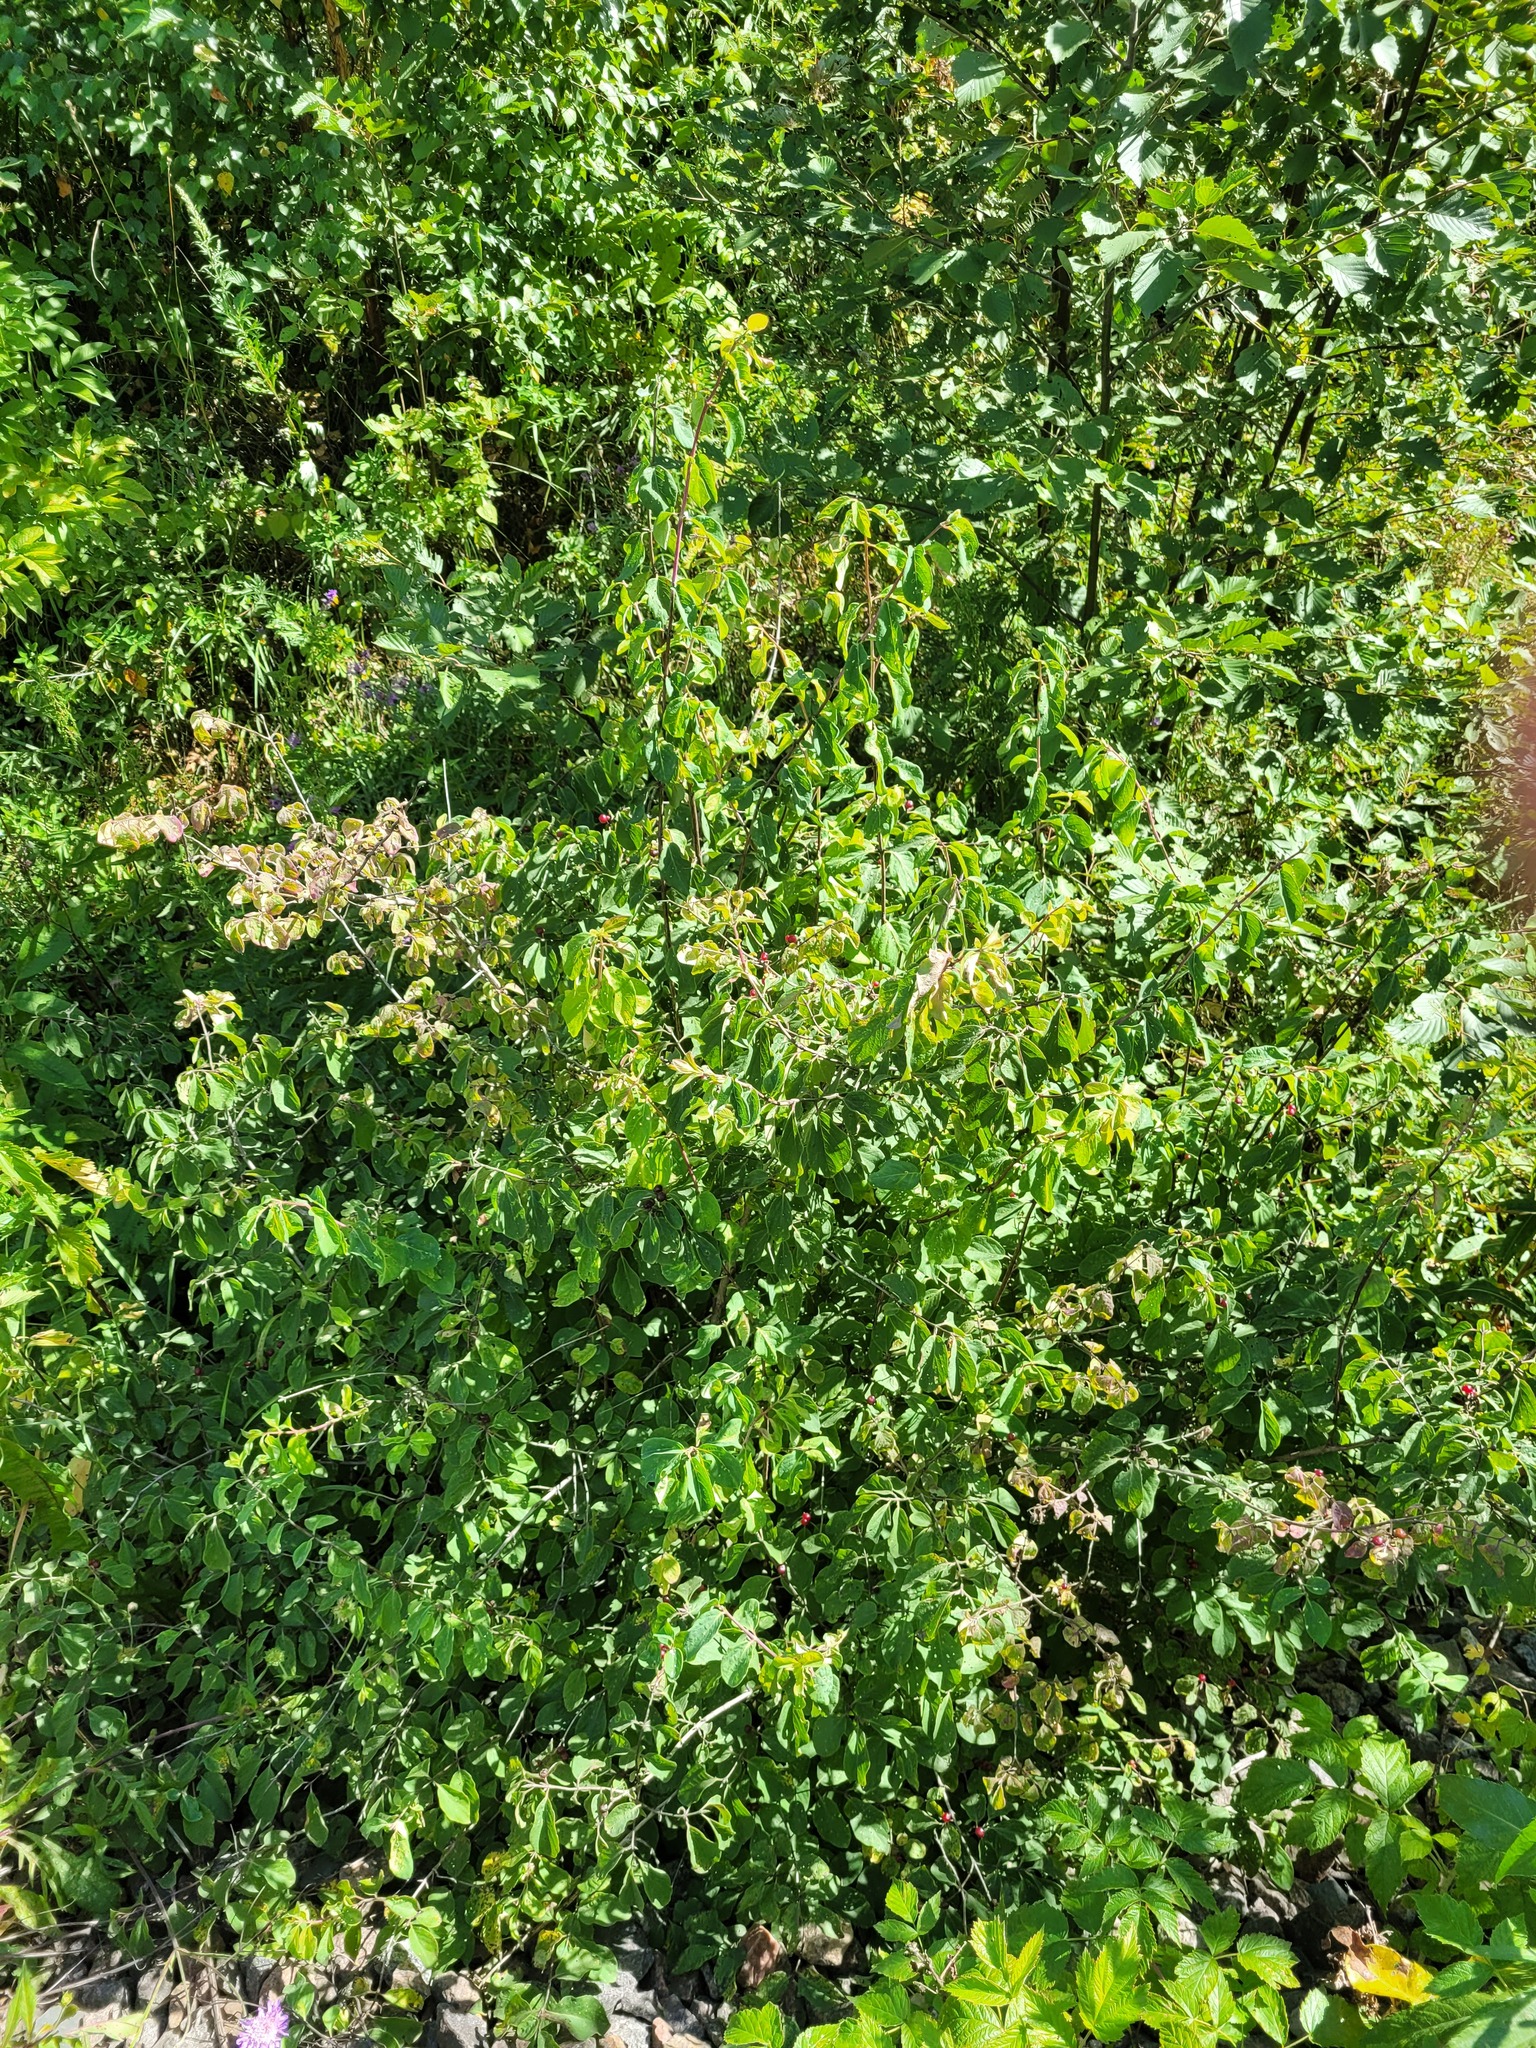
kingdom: Plantae
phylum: Tracheophyta
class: Magnoliopsida
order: Dipsacales
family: Caprifoliaceae
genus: Lonicera
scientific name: Lonicera xylosteum
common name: Fly honeysuckle
